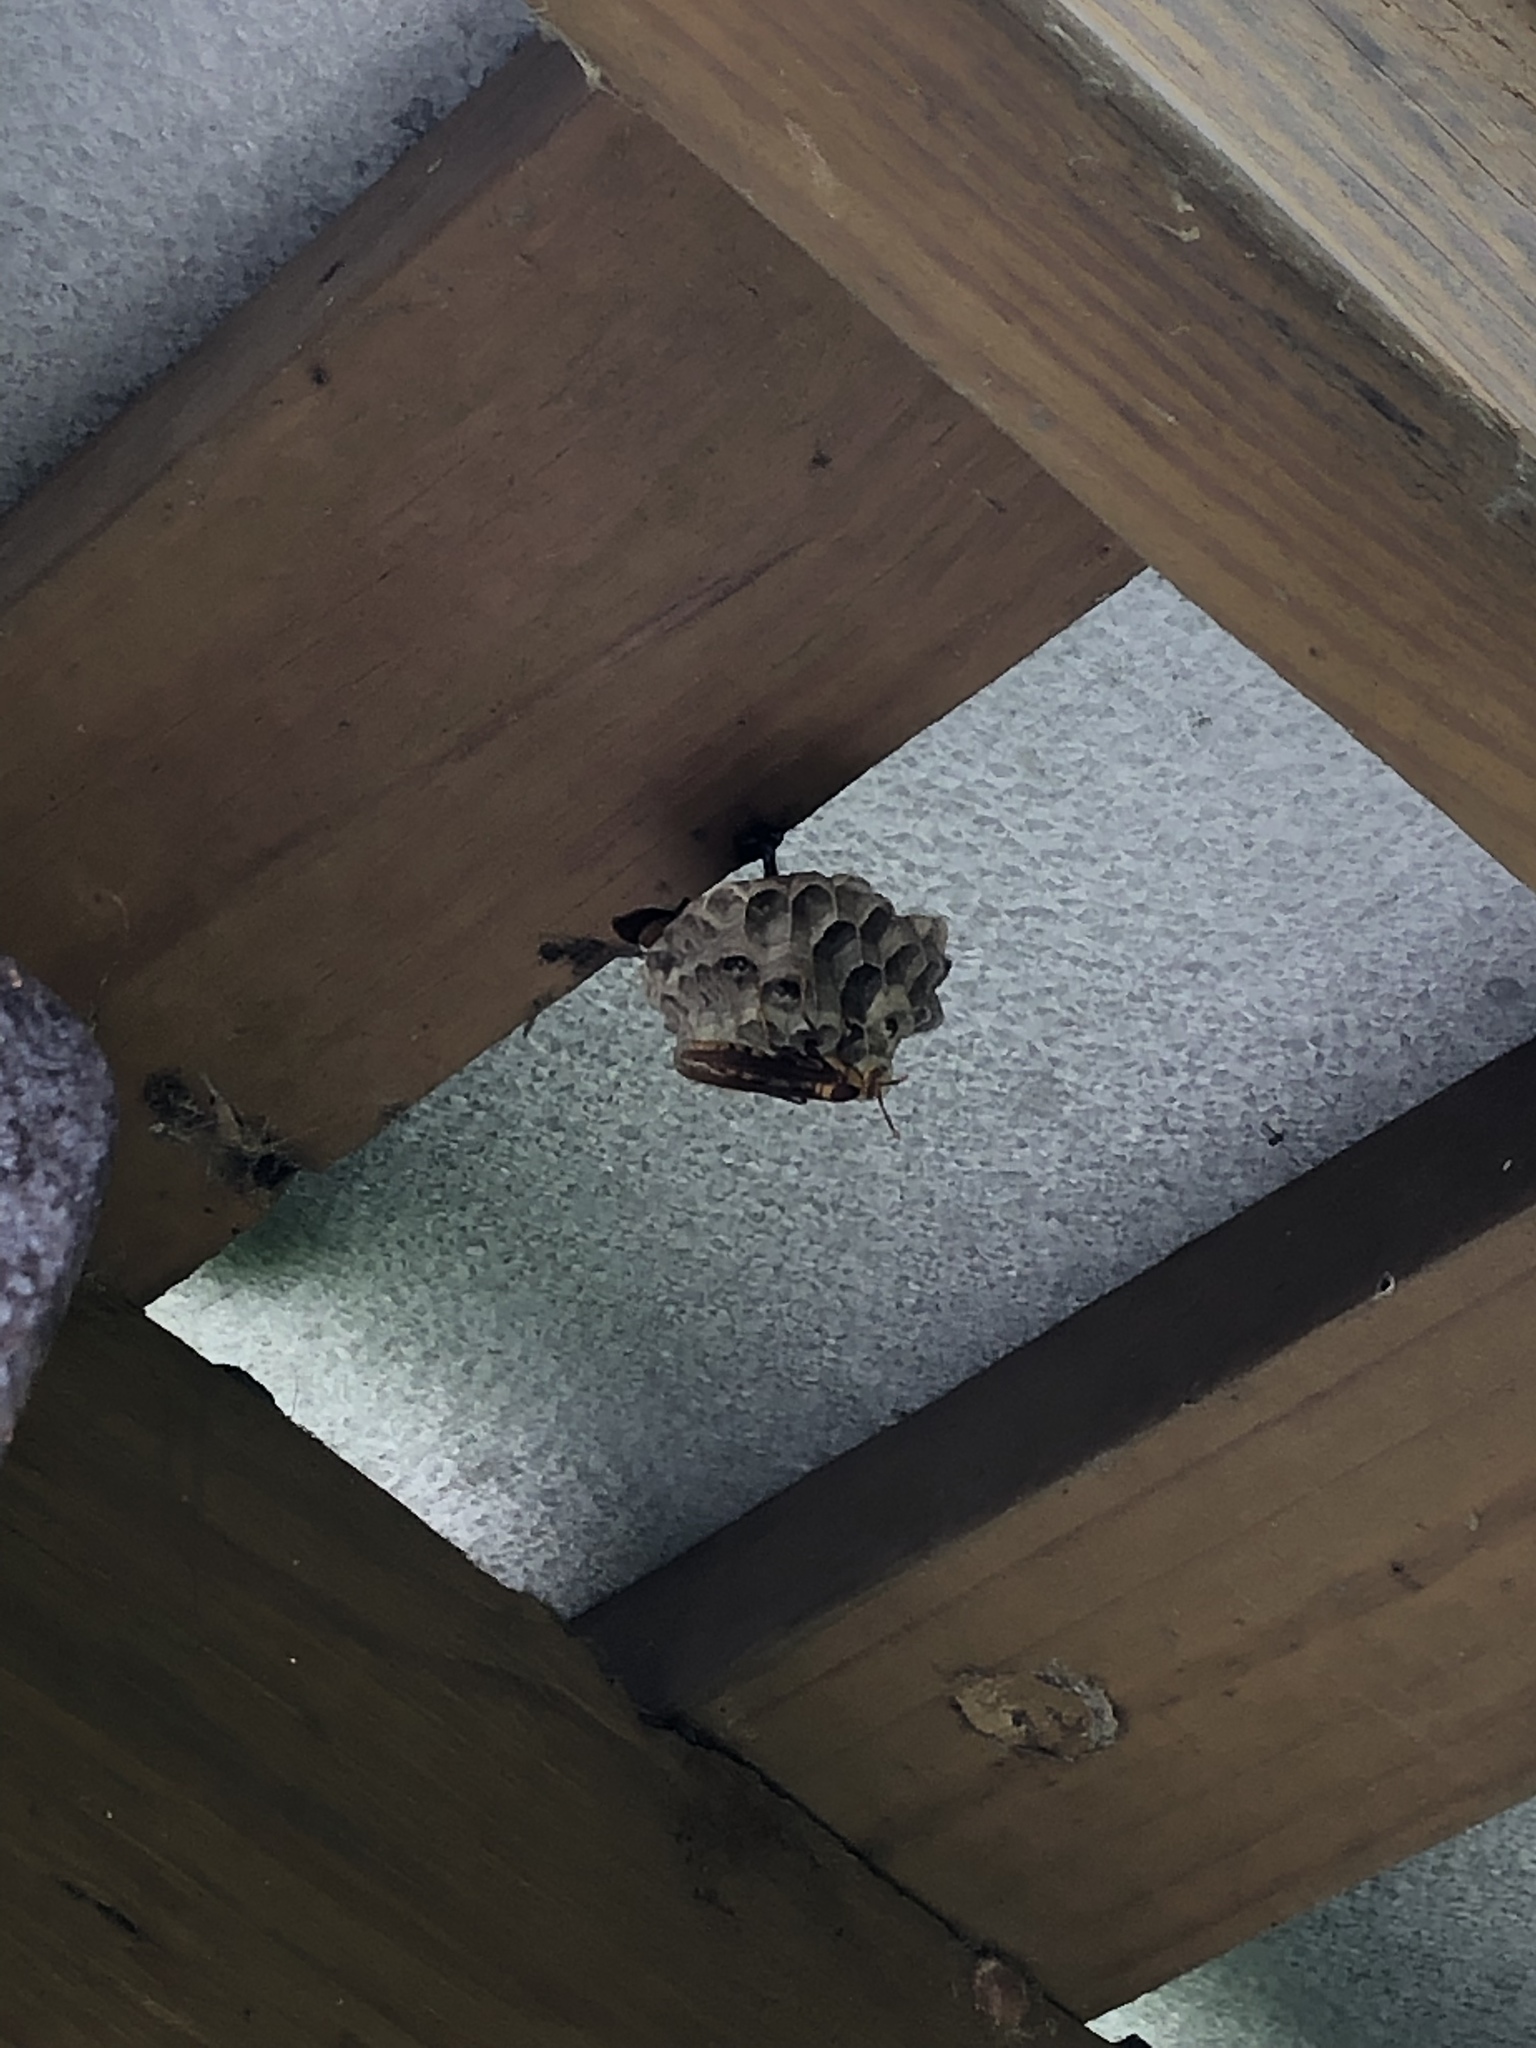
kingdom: Animalia
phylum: Arthropoda
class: Insecta
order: Hymenoptera
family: Eumenidae
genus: Polistes
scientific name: Polistes major
